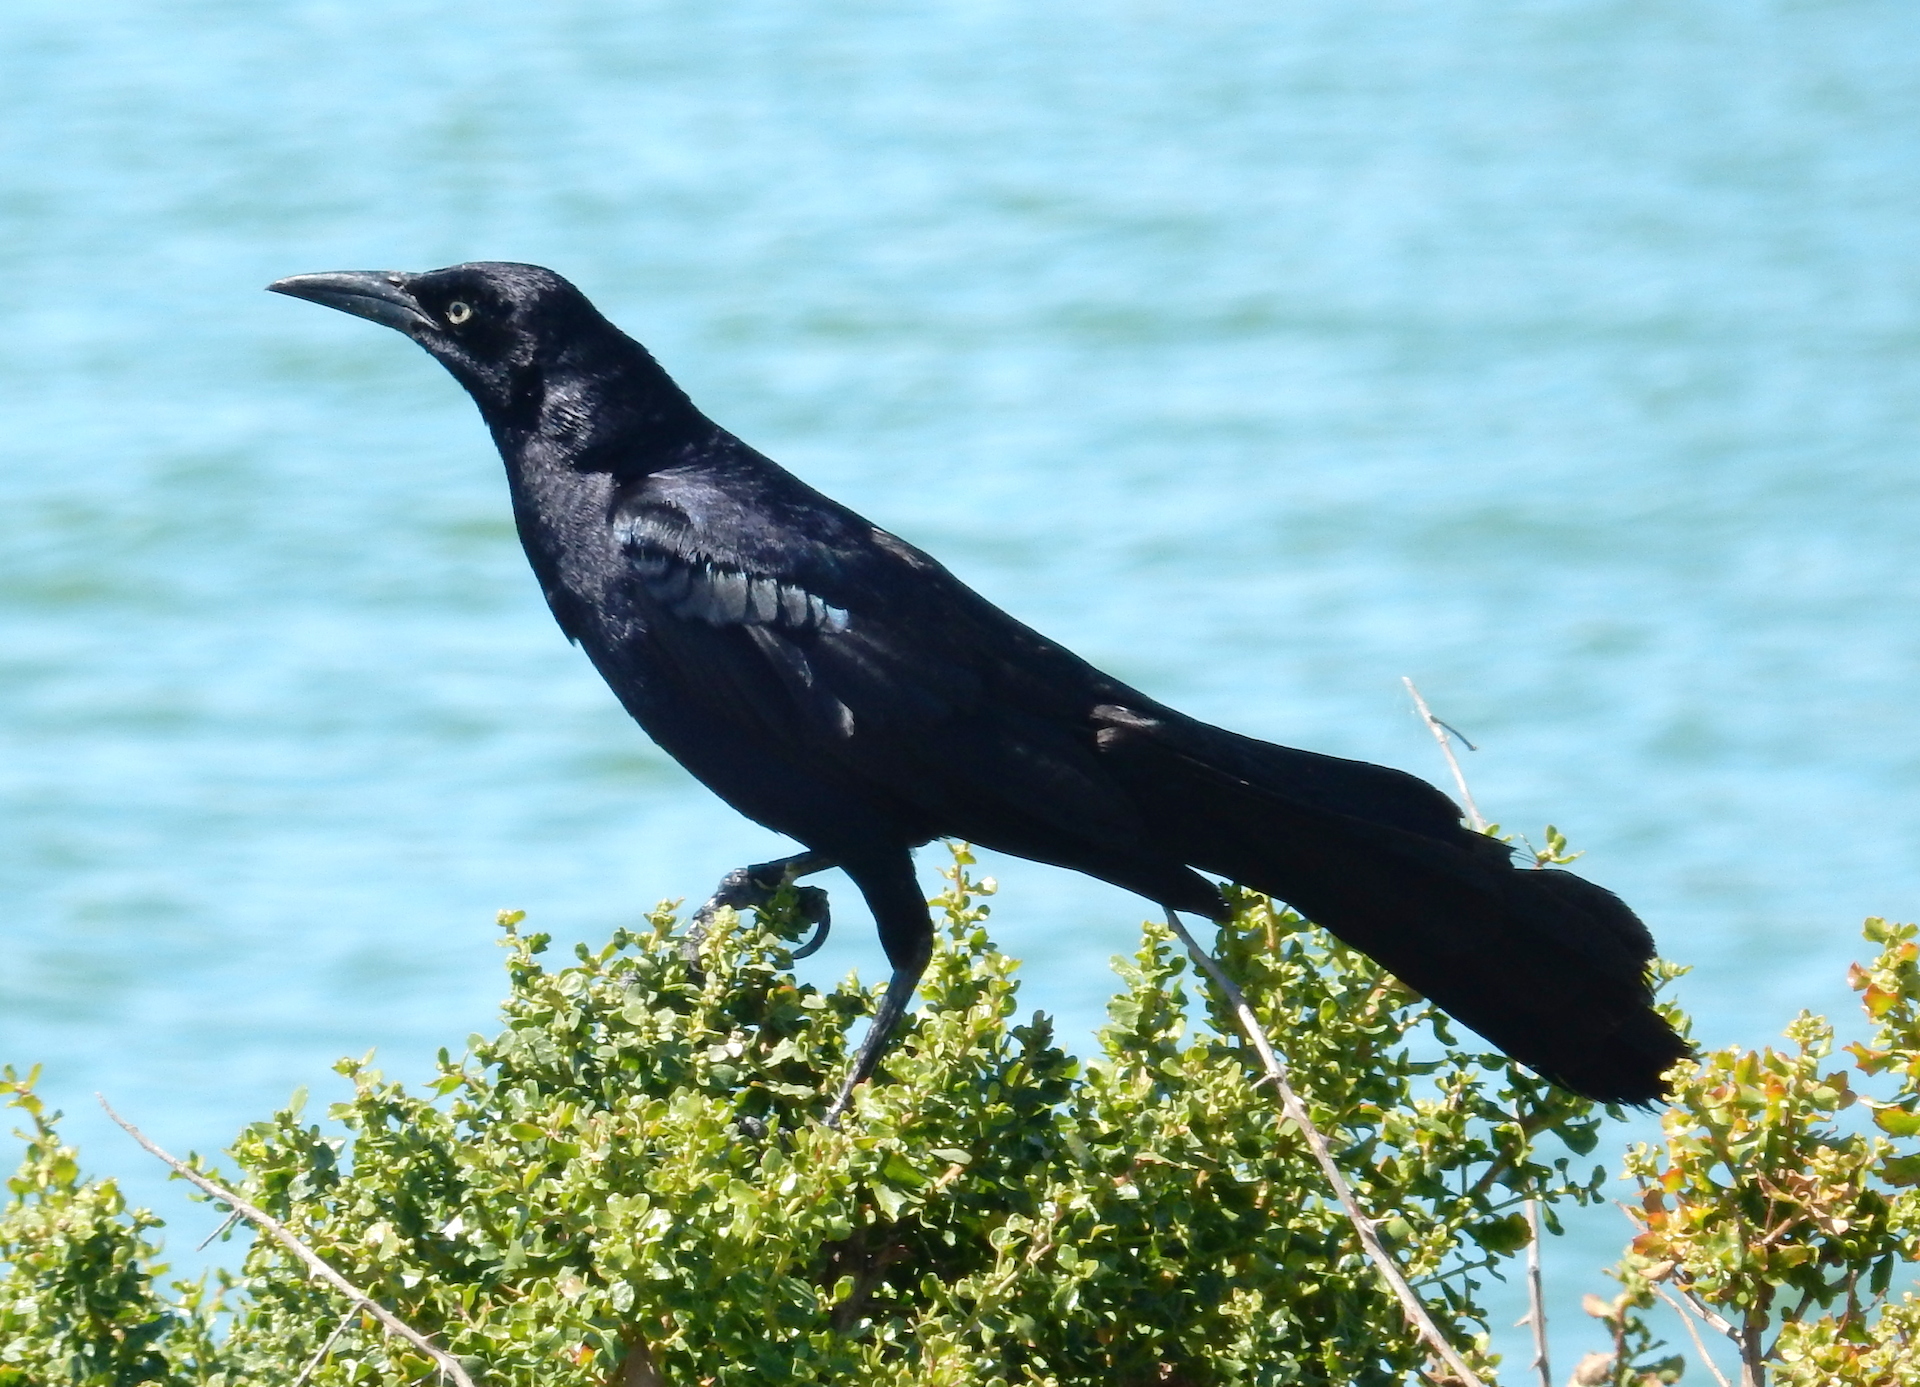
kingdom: Animalia
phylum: Chordata
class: Aves
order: Passeriformes
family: Icteridae
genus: Quiscalus
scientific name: Quiscalus mexicanus
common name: Great-tailed grackle
